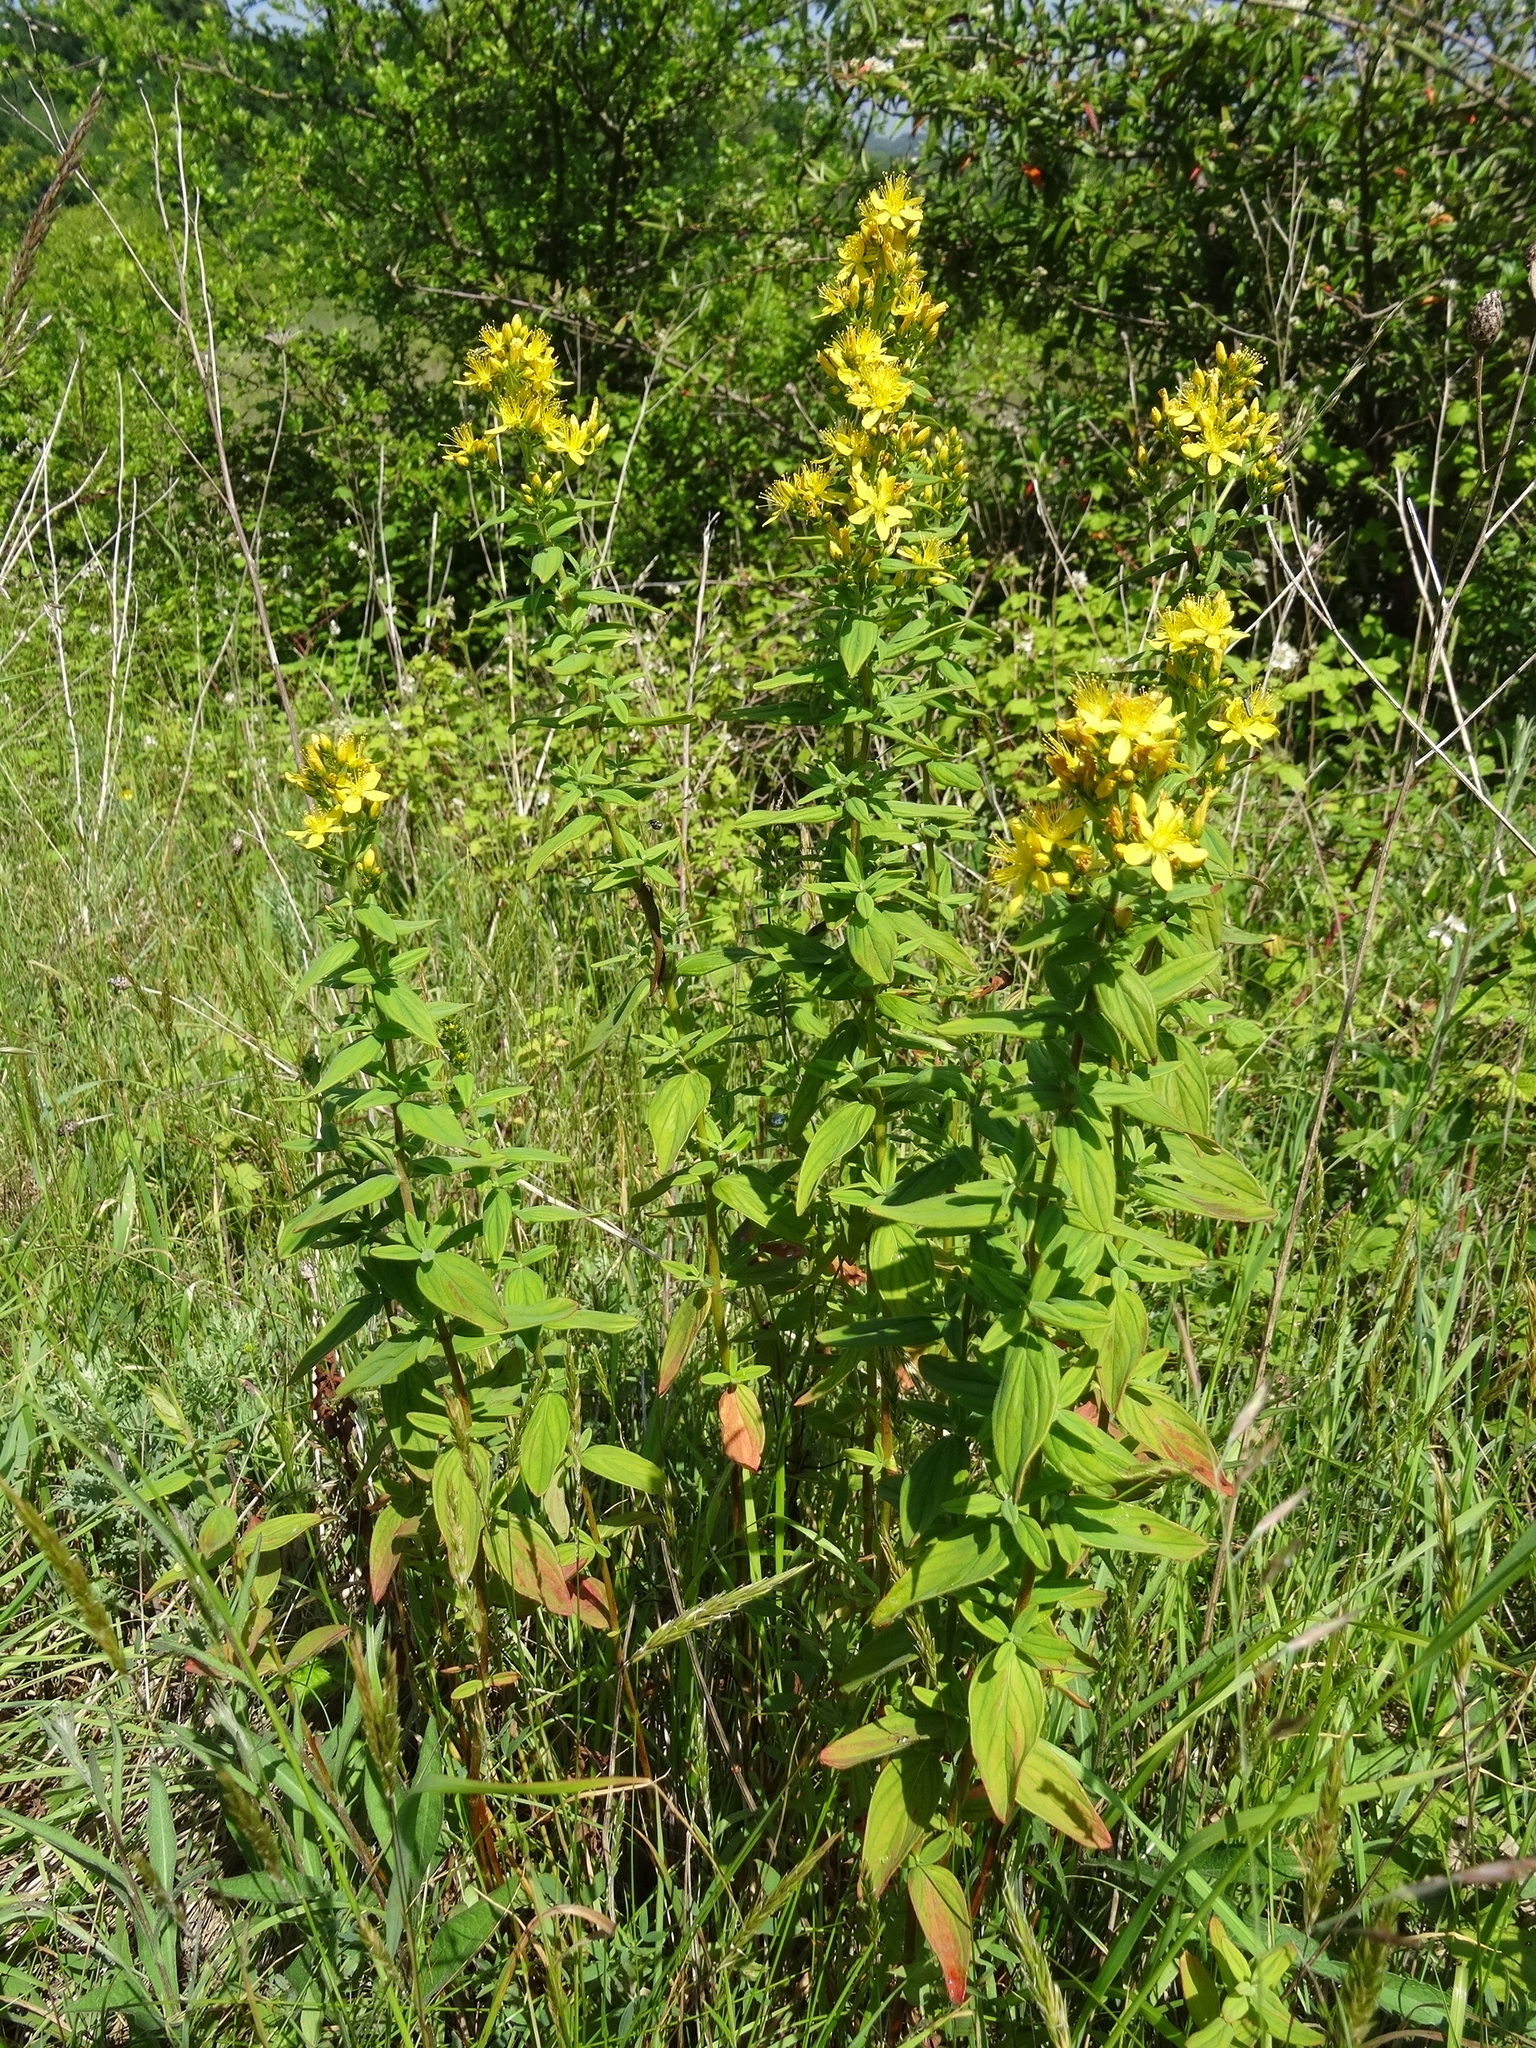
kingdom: Plantae
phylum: Tracheophyta
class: Magnoliopsida
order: Malpighiales
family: Hypericaceae
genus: Hypericum
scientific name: Hypericum hirsutum
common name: Hairy st. john's-wort
